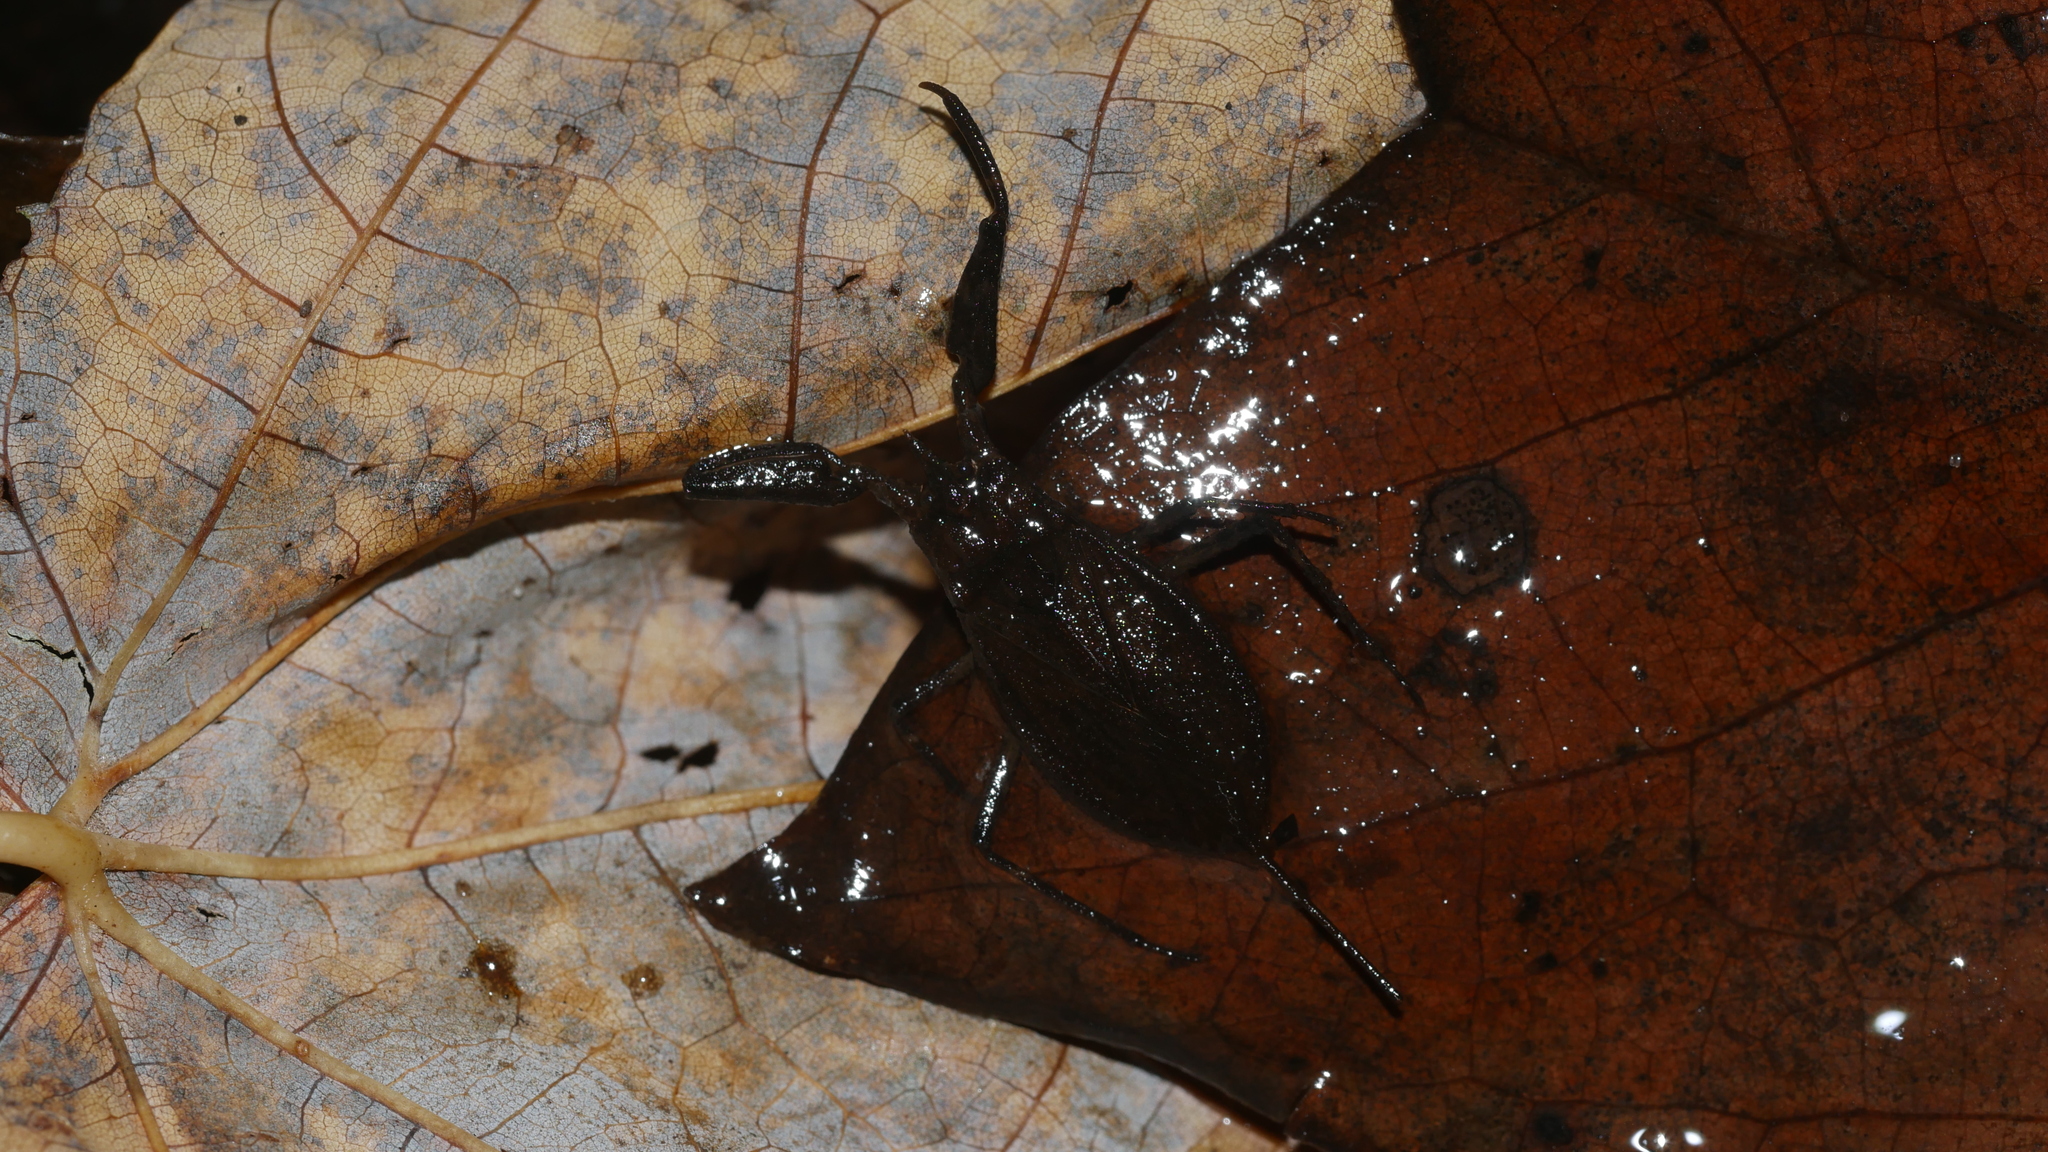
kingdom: Animalia
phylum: Arthropoda
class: Insecta
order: Hemiptera
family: Nepidae
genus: Nepa
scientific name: Nepa apiculata
